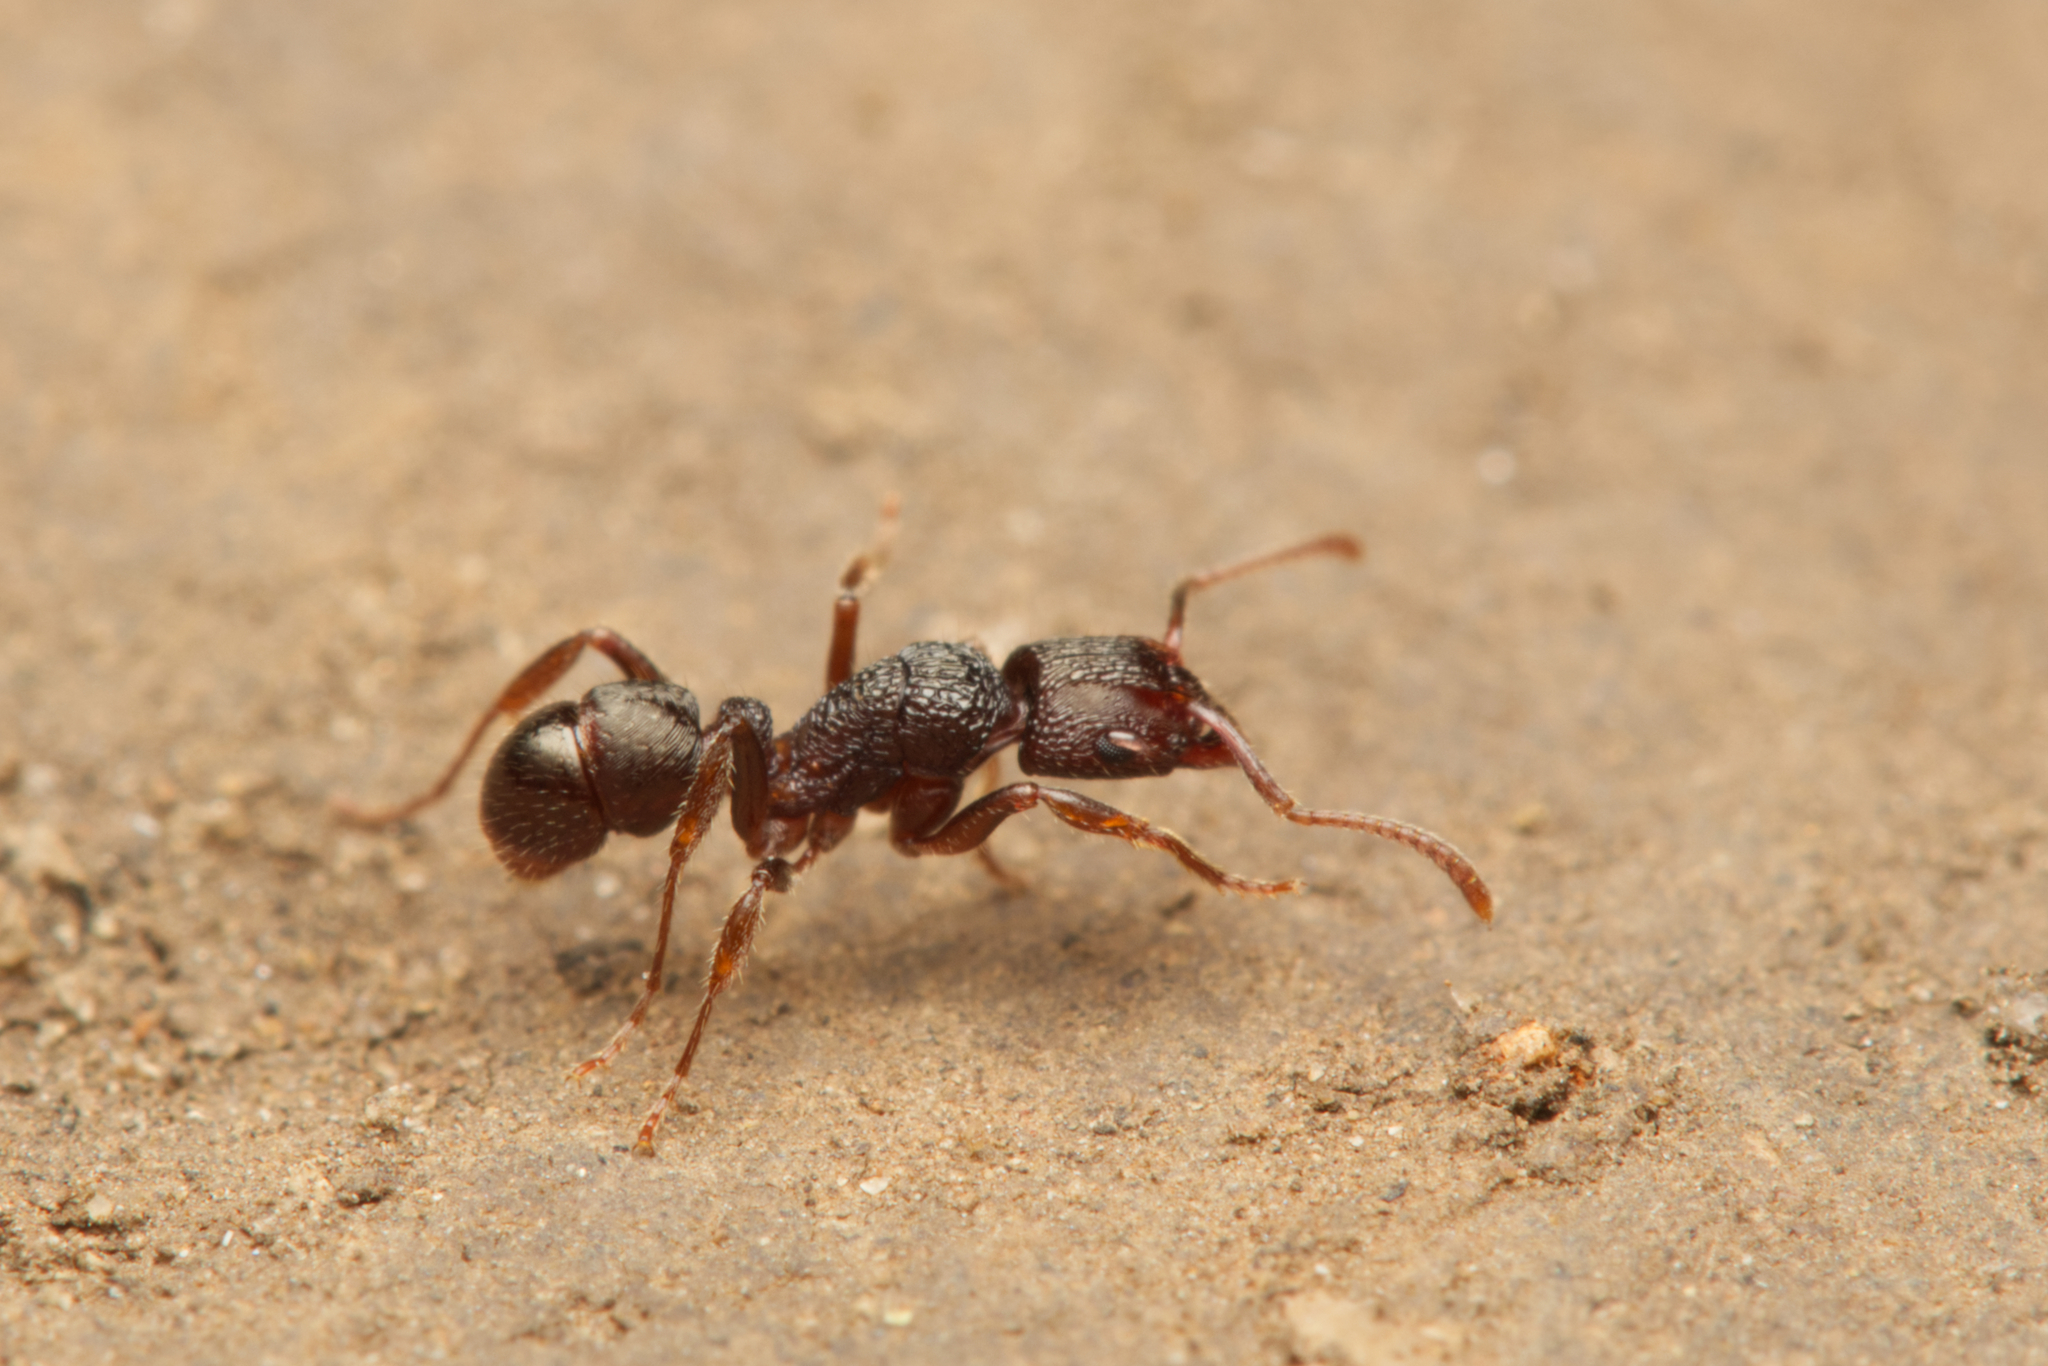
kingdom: Animalia
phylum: Arthropoda
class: Insecta
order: Hymenoptera
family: Formicidae
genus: Rhytidoponera
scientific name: Rhytidoponera victoriae
